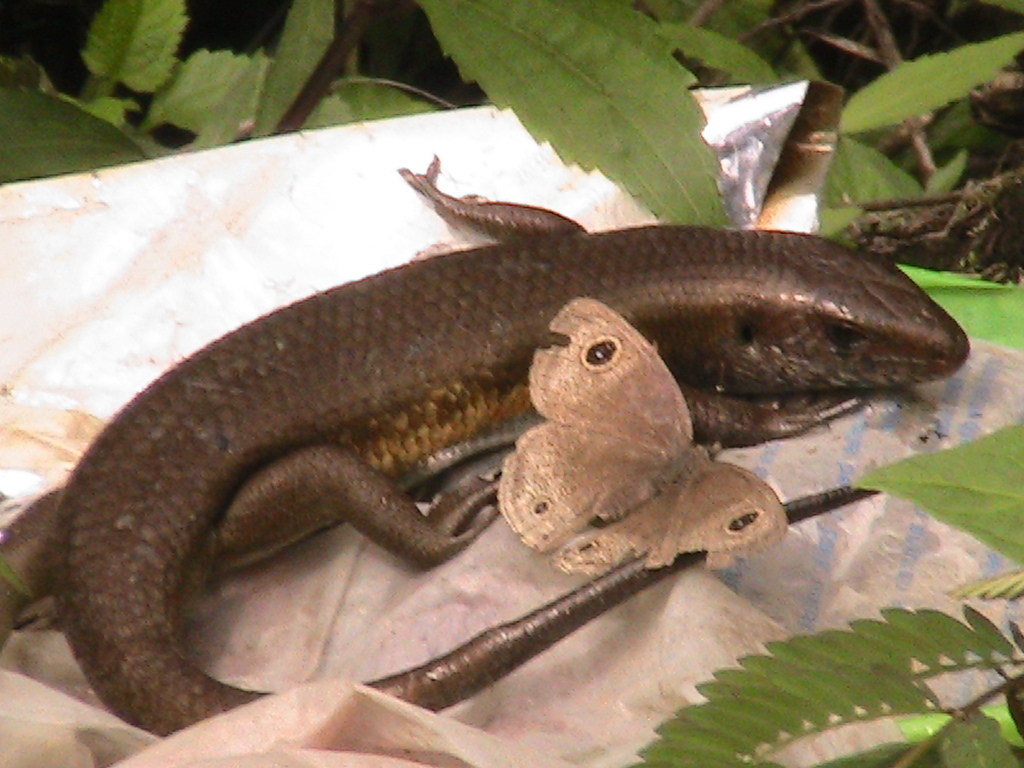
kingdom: Animalia
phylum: Chordata
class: Squamata
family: Scincidae
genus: Eutropis
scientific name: Eutropis multifasciata
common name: Common mabuya
